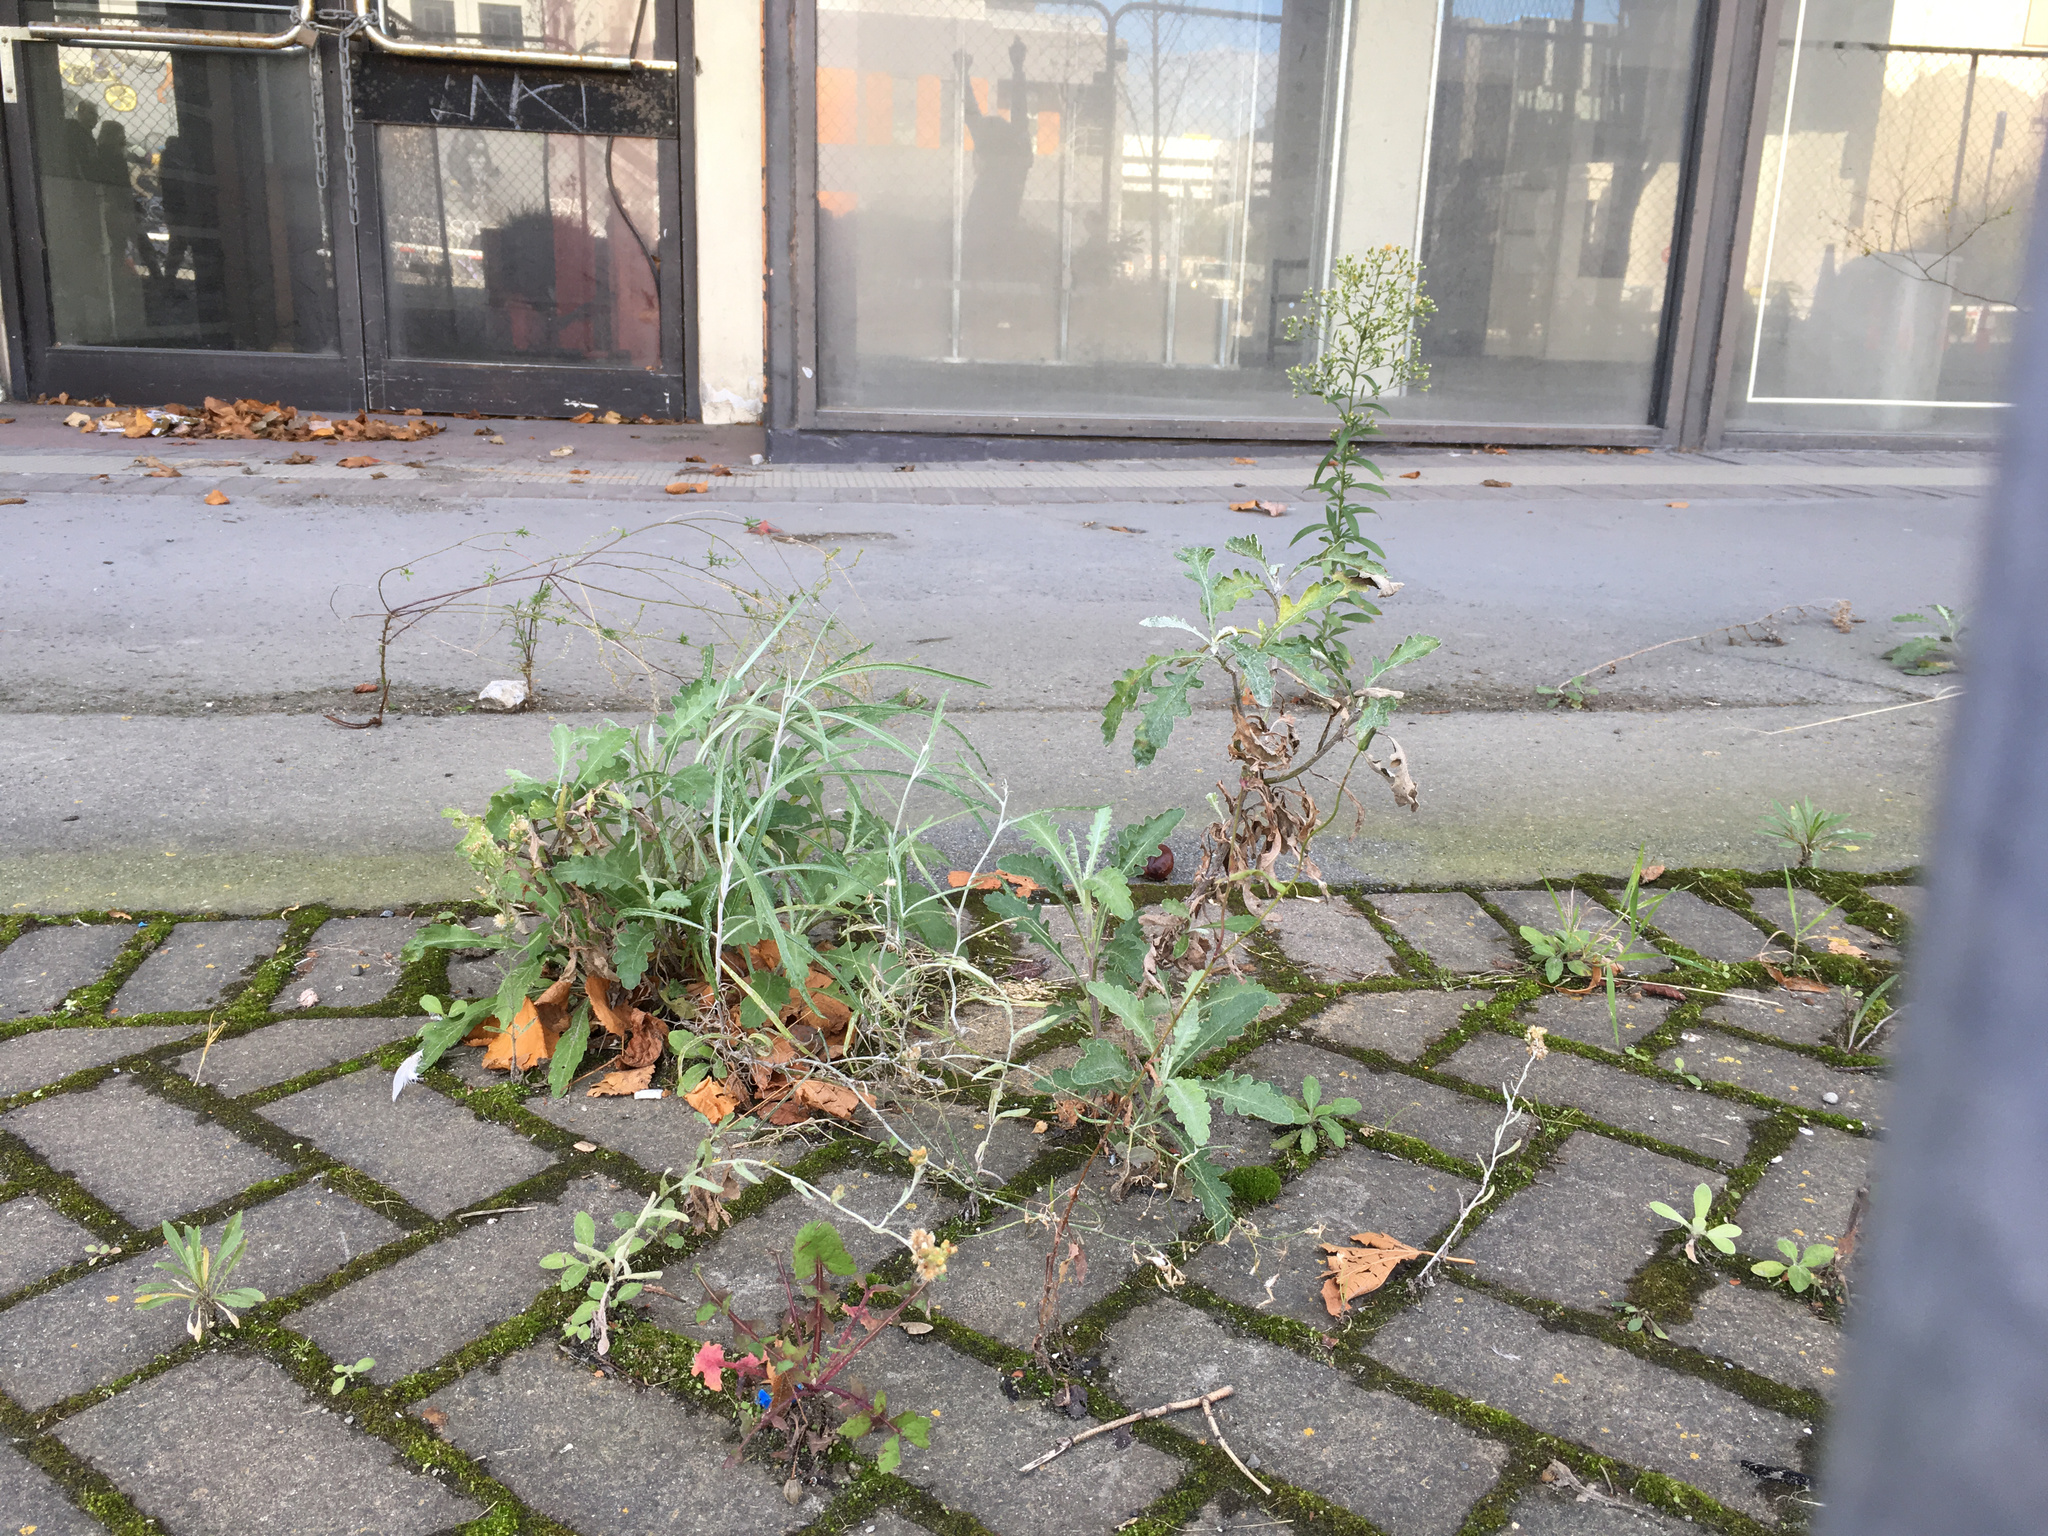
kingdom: Plantae
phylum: Tracheophyta
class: Magnoliopsida
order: Asterales
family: Asteraceae
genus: Senecio
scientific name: Senecio quadridentatus
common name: Cotton fireweed
